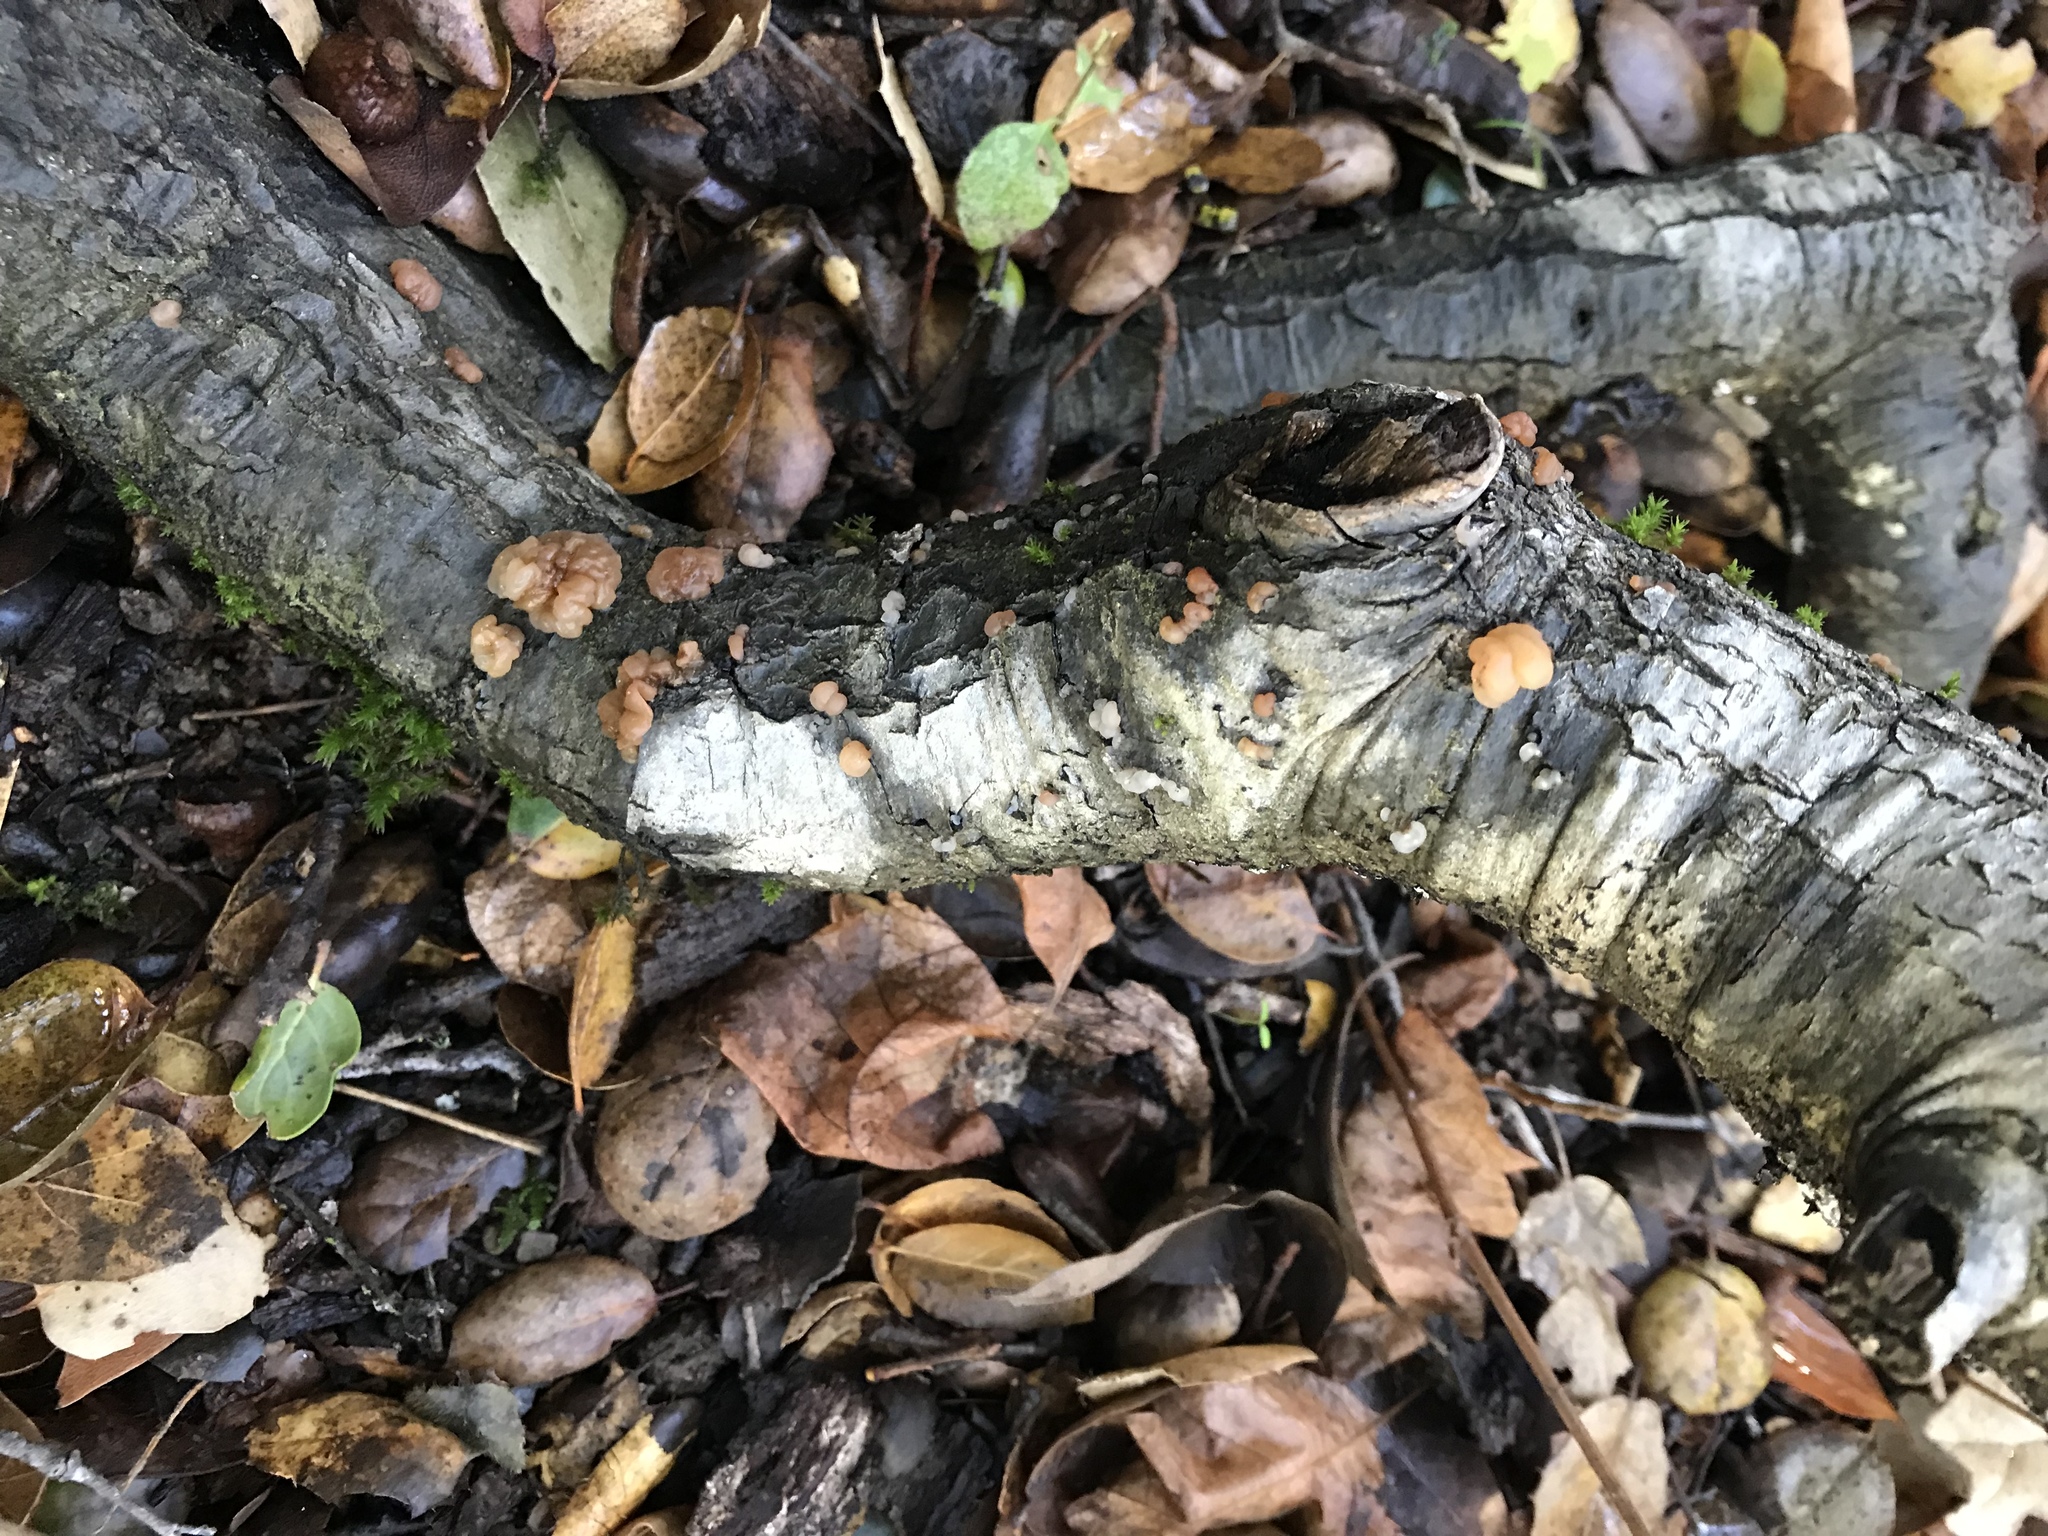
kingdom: Fungi
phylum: Basidiomycota
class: Agaricomycetes
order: Auriculariales
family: Hyaloriaceae
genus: Myxarium
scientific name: Myxarium nucleatum
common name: Crystal brain fungus
